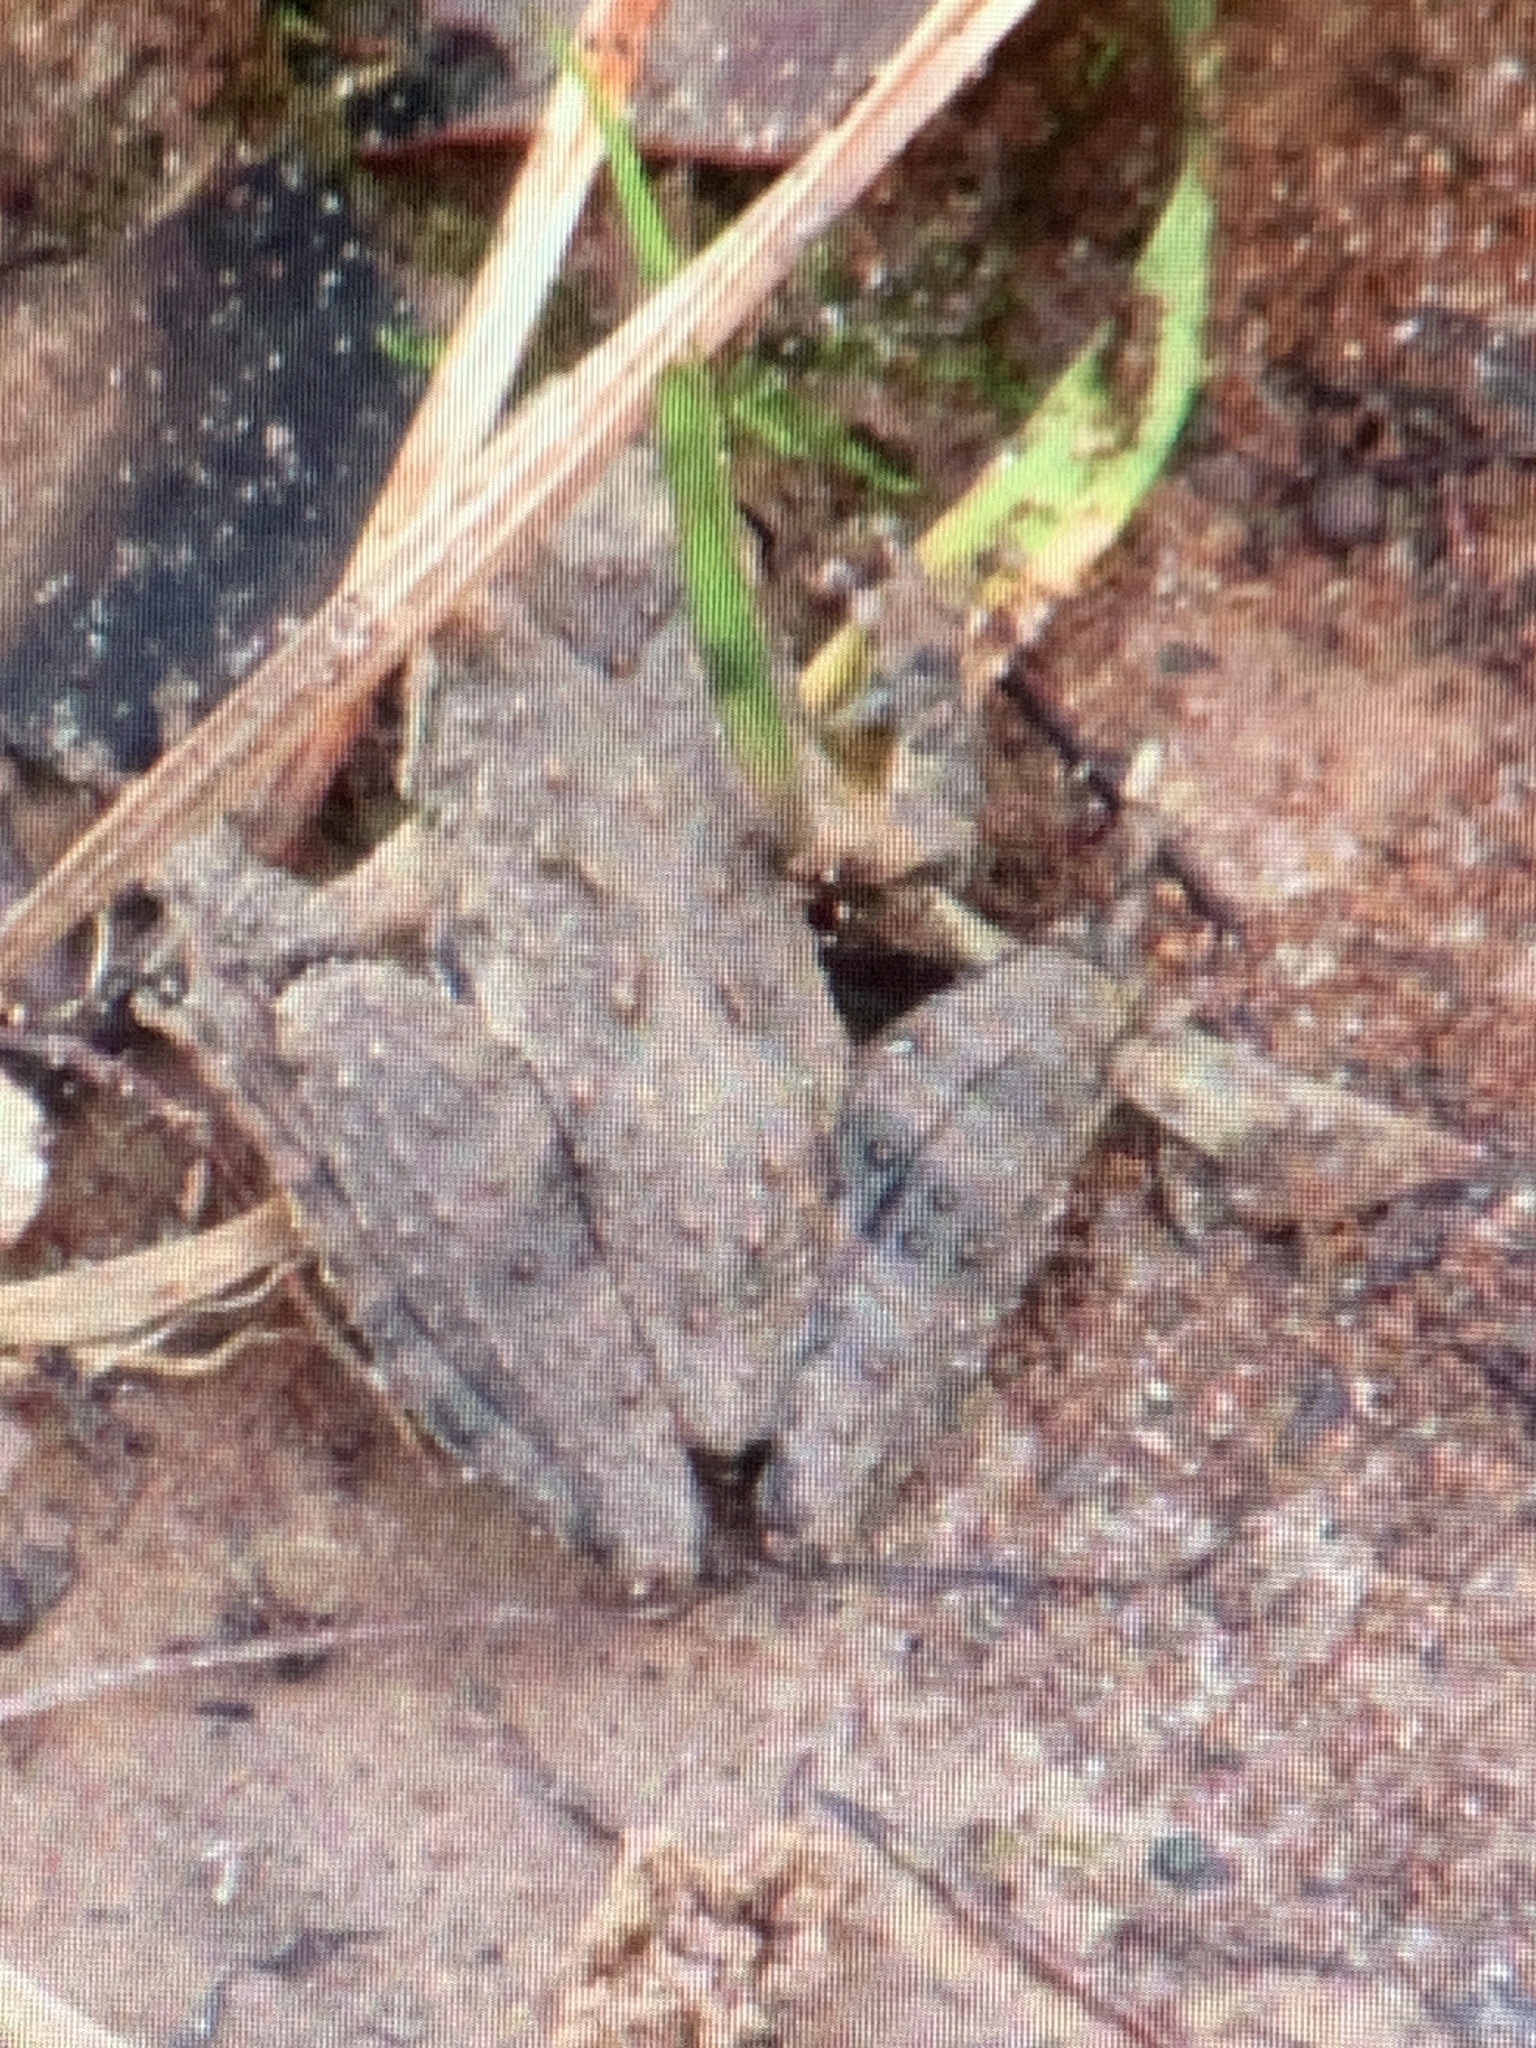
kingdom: Animalia
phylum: Chordata
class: Amphibia
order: Anura
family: Hylidae
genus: Acris
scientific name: Acris blanchardi
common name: Blanchard's cricket frog
